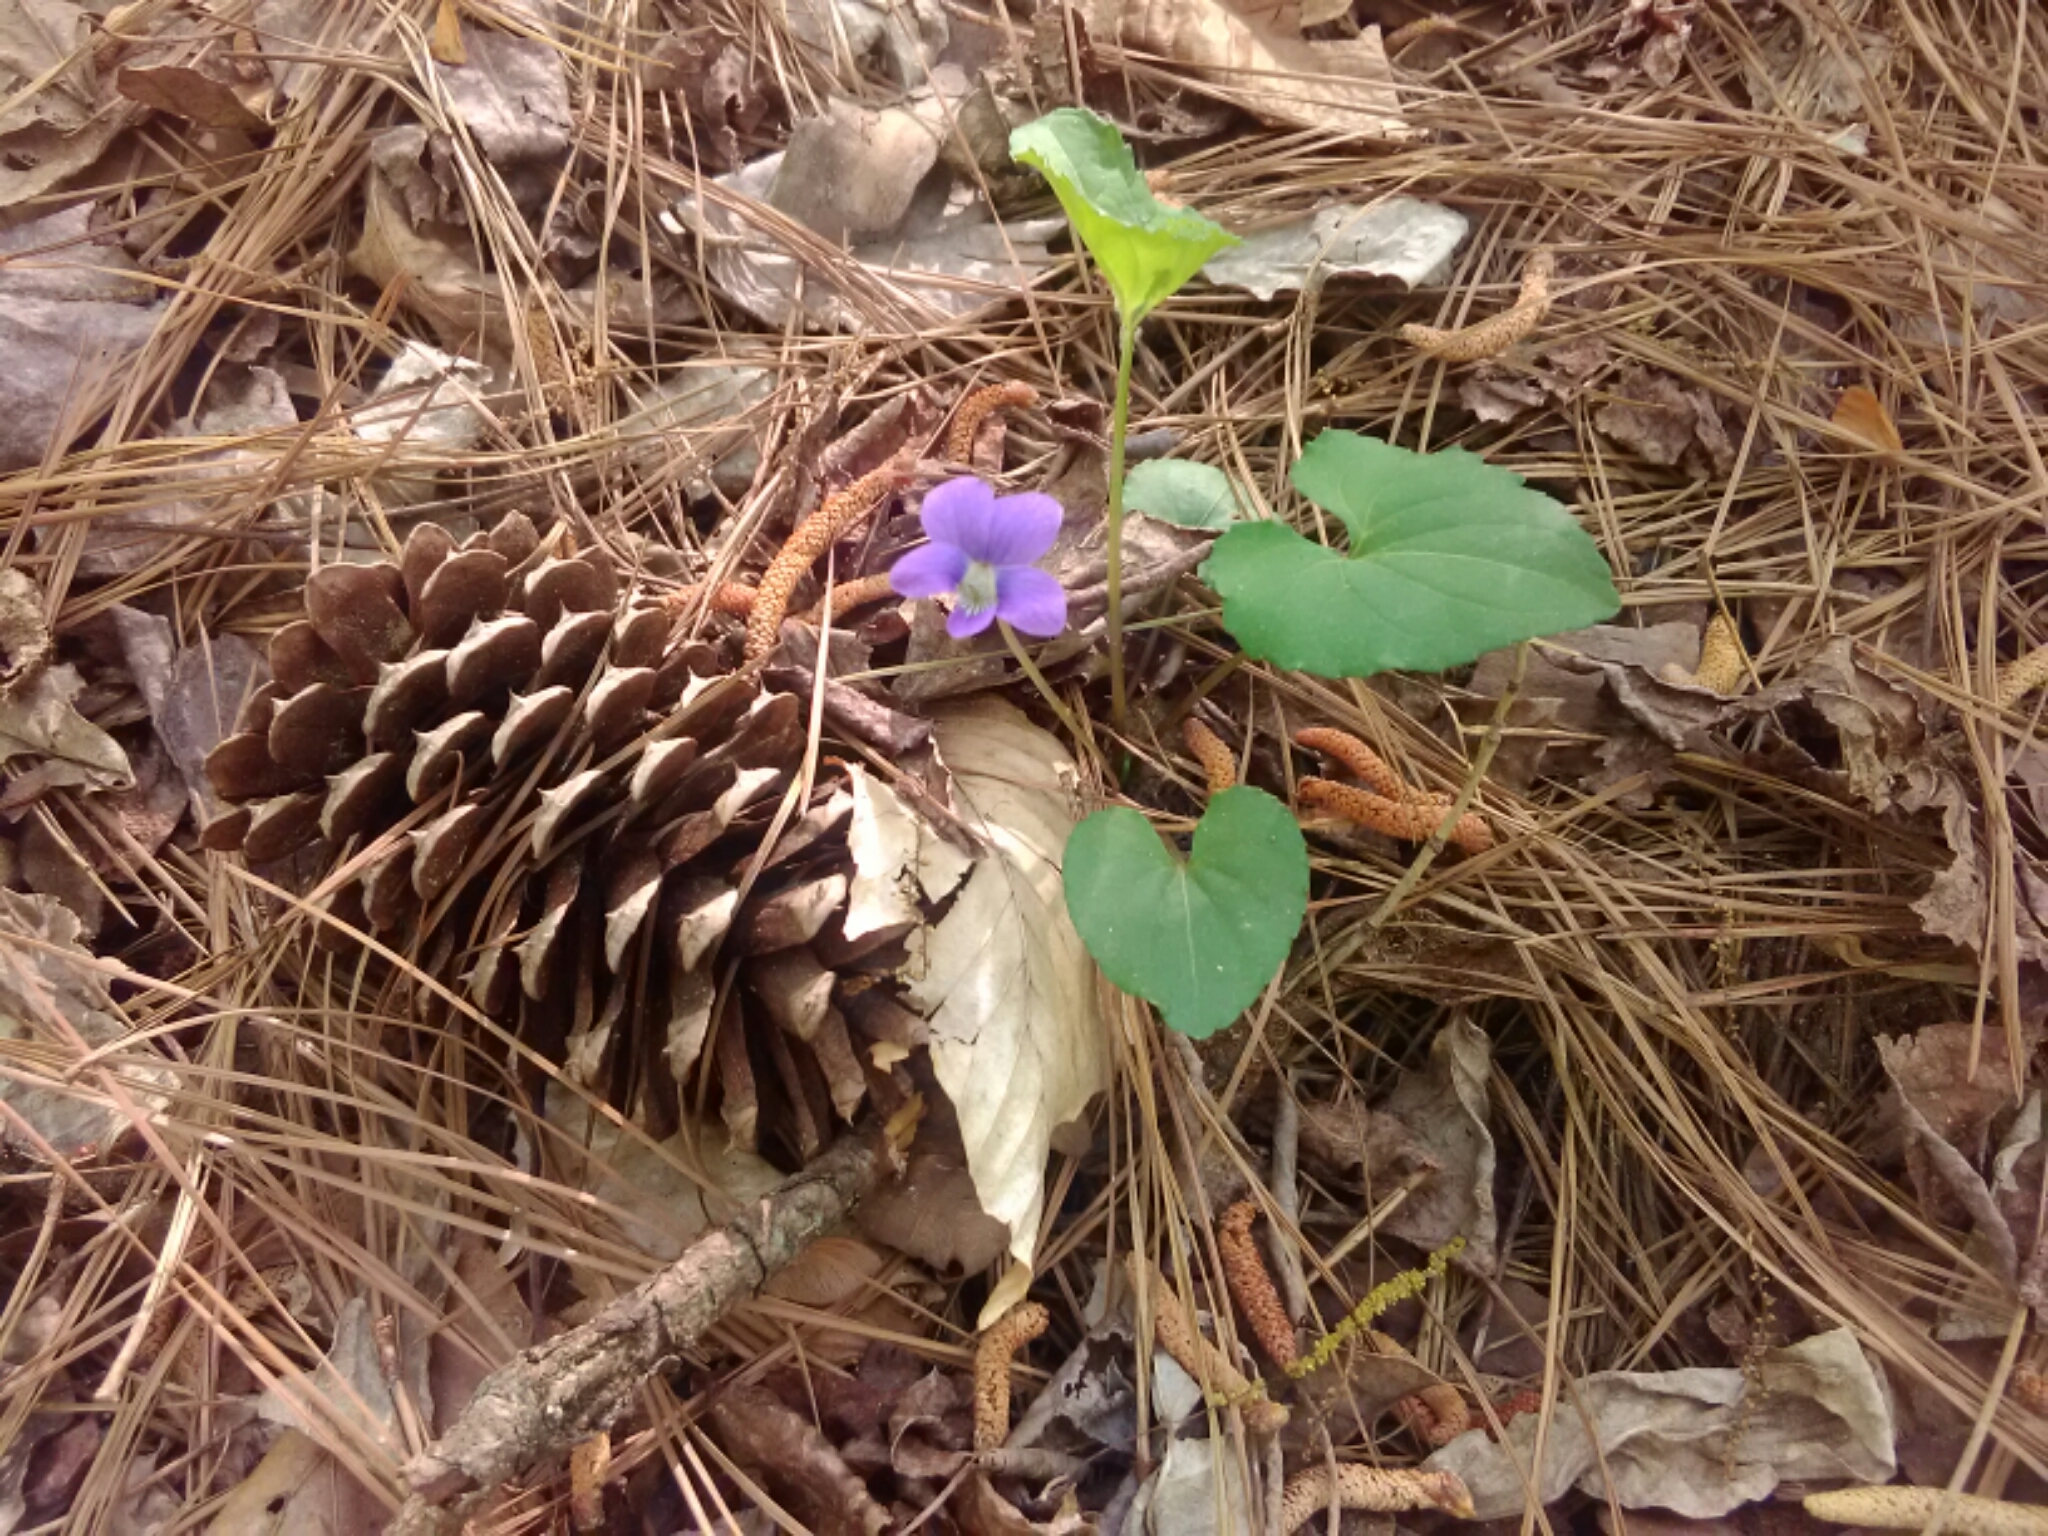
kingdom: Plantae
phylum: Tracheophyta
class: Magnoliopsida
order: Malpighiales
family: Violaceae
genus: Viola
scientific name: Viola sororia
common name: Dooryard violet
